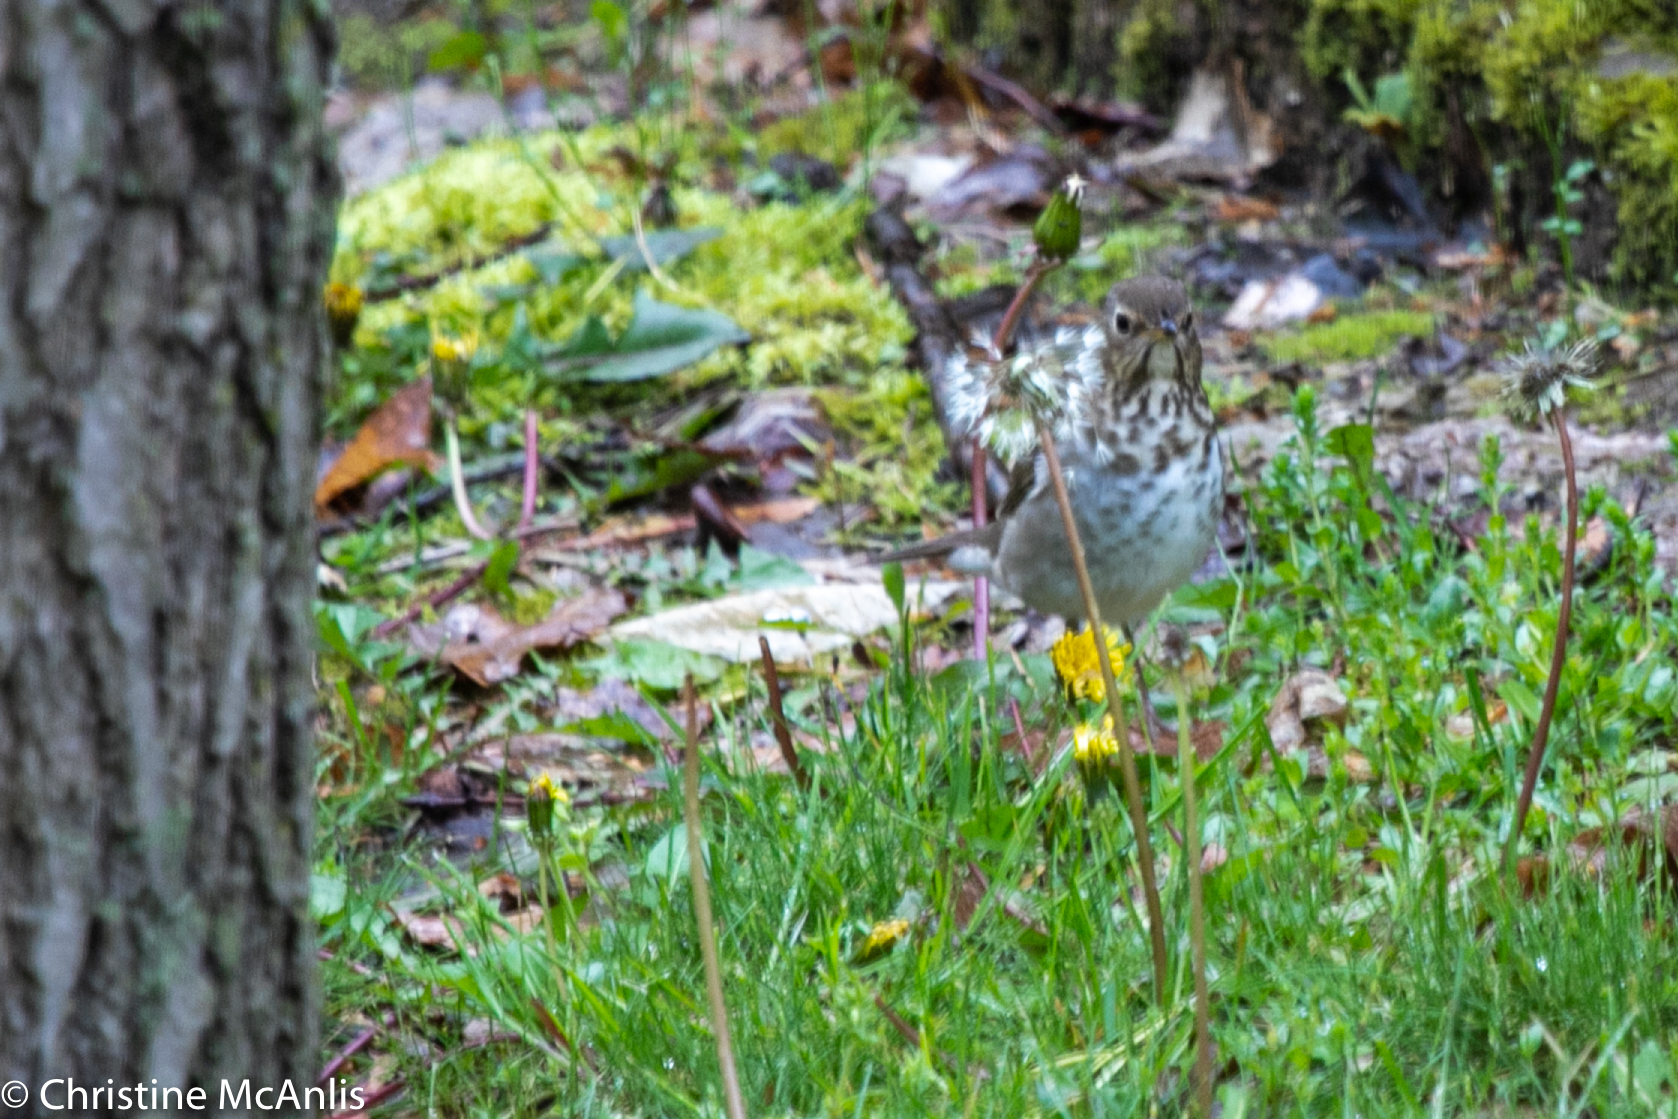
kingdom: Animalia
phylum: Chordata
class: Aves
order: Passeriformes
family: Turdidae
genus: Catharus
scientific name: Catharus ustulatus
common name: Swainson's thrush
